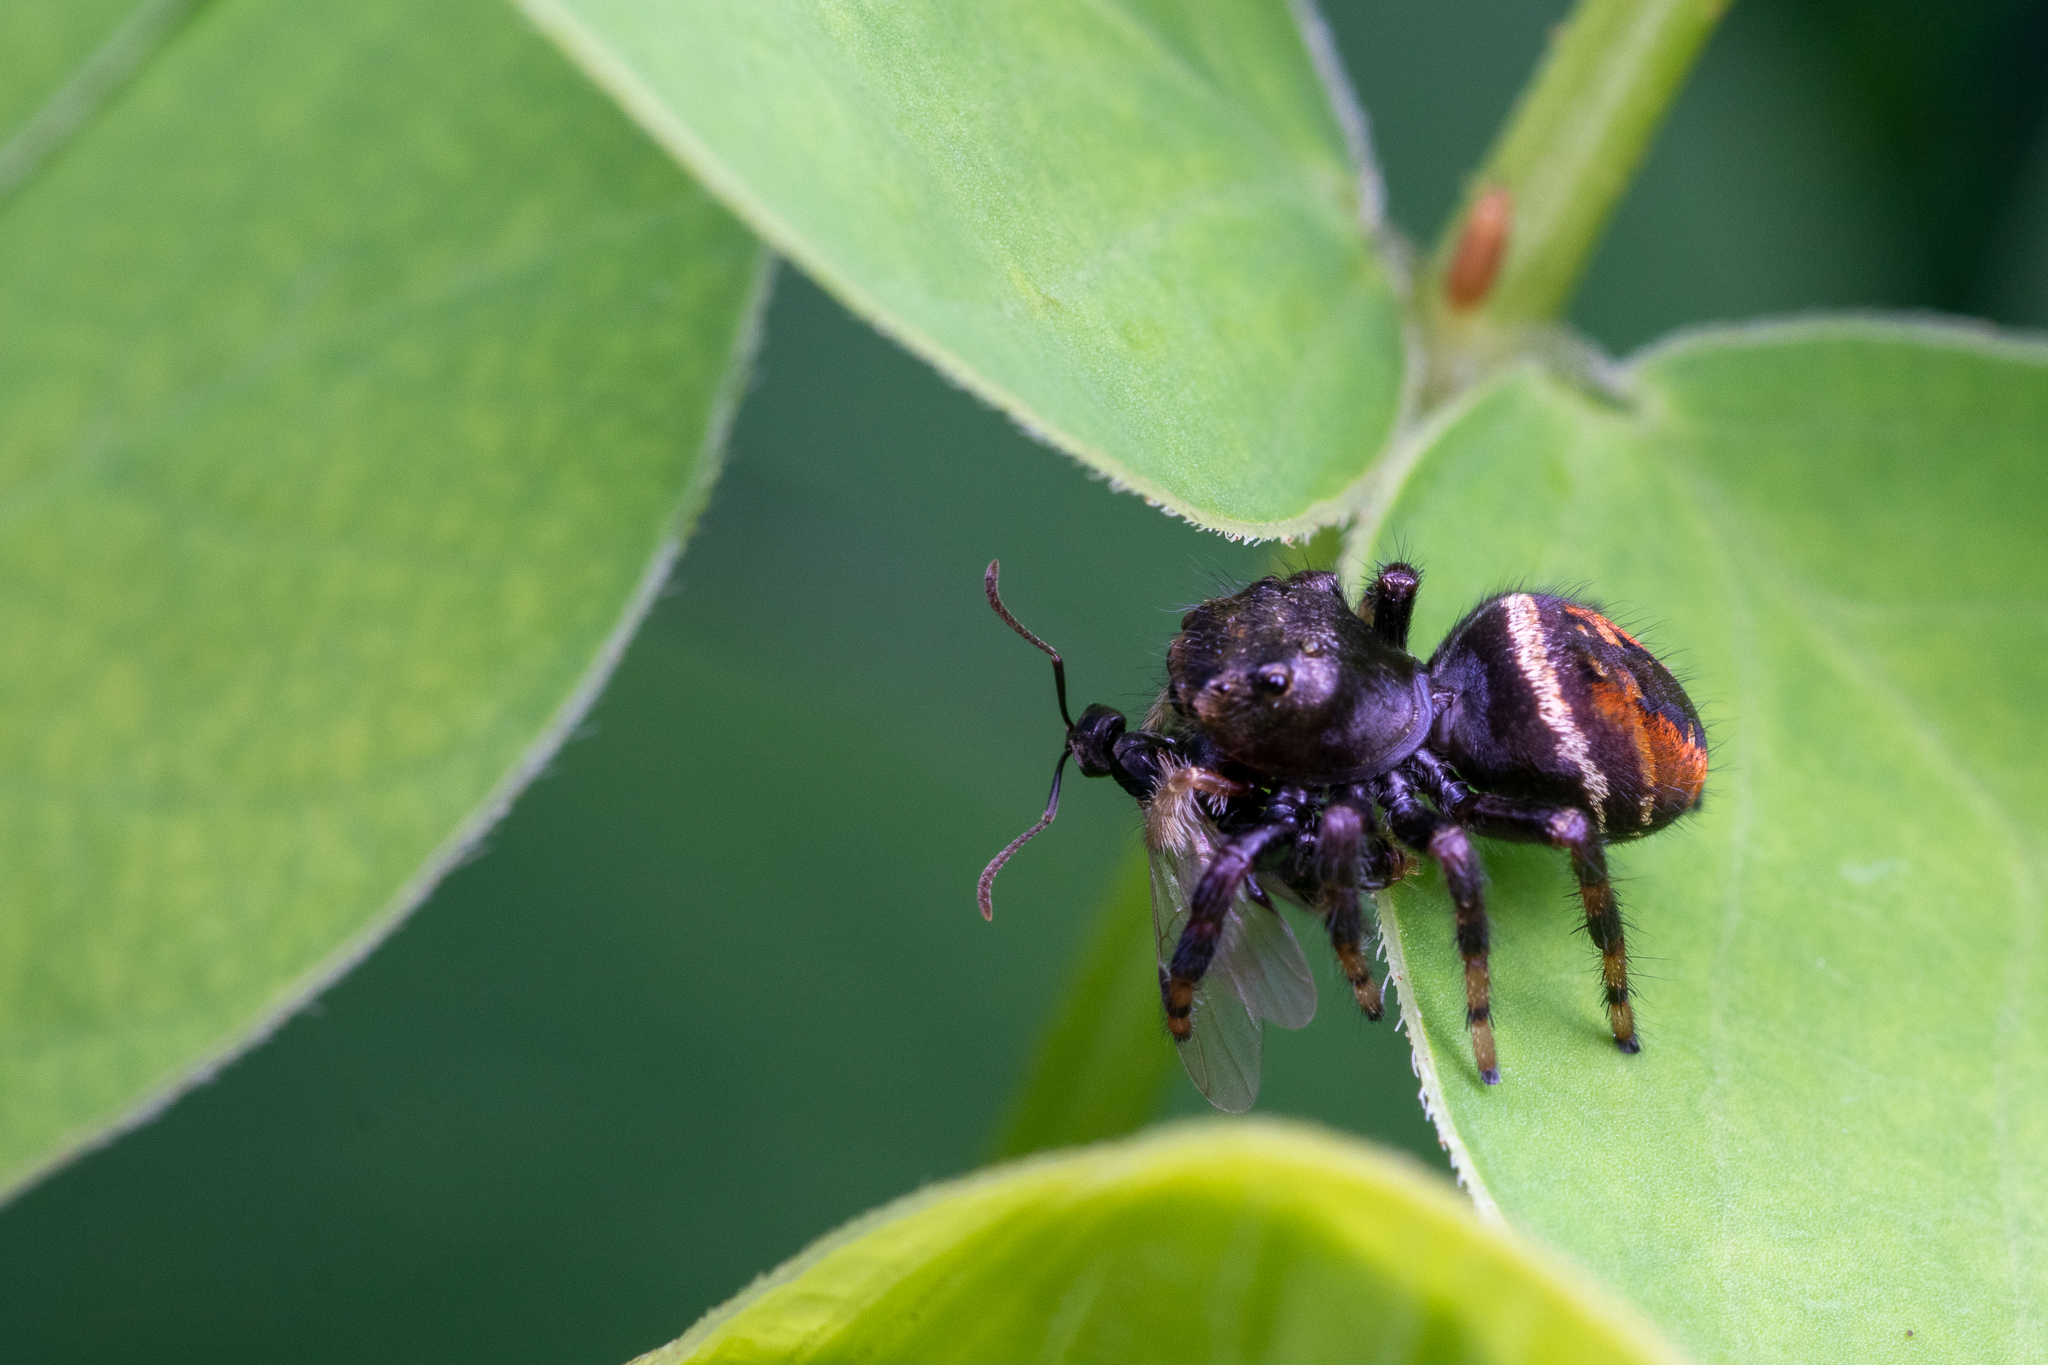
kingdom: Animalia
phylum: Arthropoda
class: Arachnida
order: Araneae
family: Salticidae
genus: Phidippus
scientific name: Phidippus clarus
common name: Brilliant jumping spider
